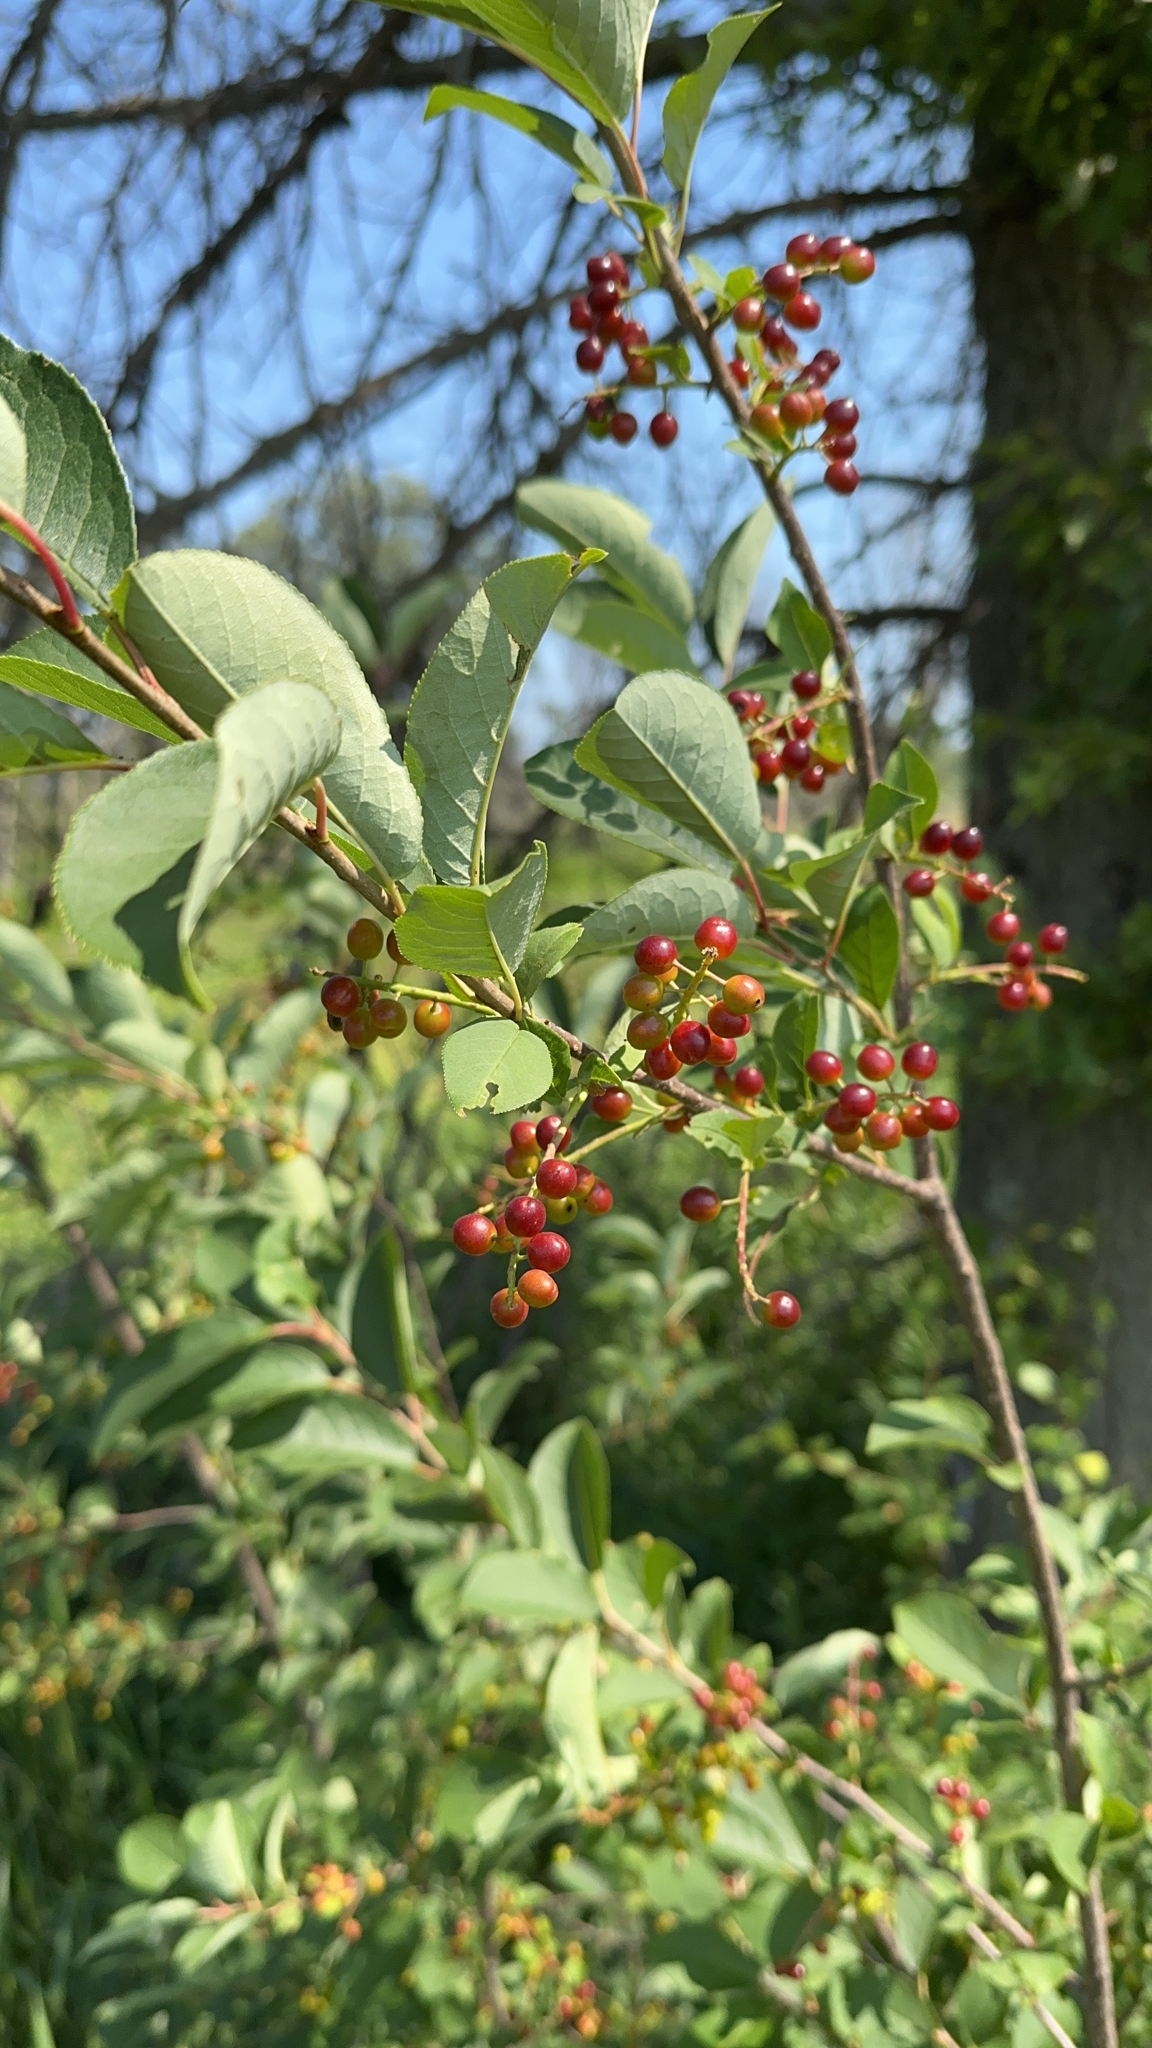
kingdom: Plantae
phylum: Tracheophyta
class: Magnoliopsida
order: Rosales
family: Rosaceae
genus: Prunus
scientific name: Prunus virginiana
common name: Chokecherry
